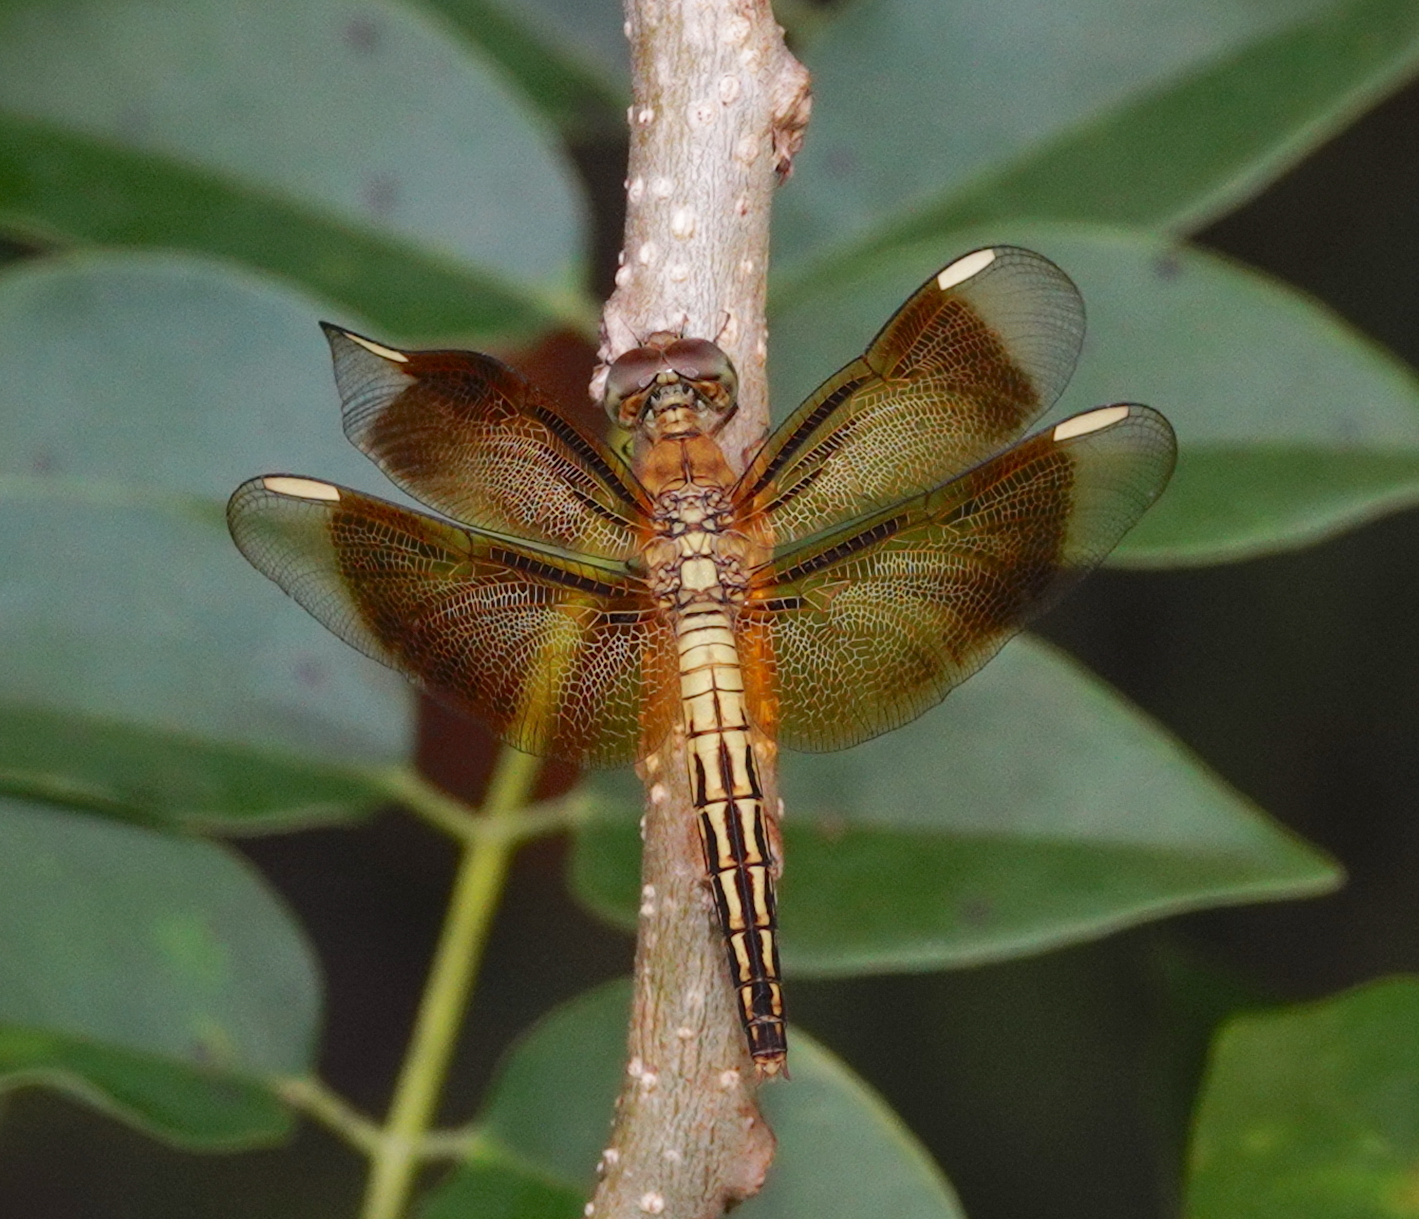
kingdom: Animalia
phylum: Arthropoda
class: Insecta
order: Odonata
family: Libellulidae
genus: Neurothemis
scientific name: Neurothemis manadensis
